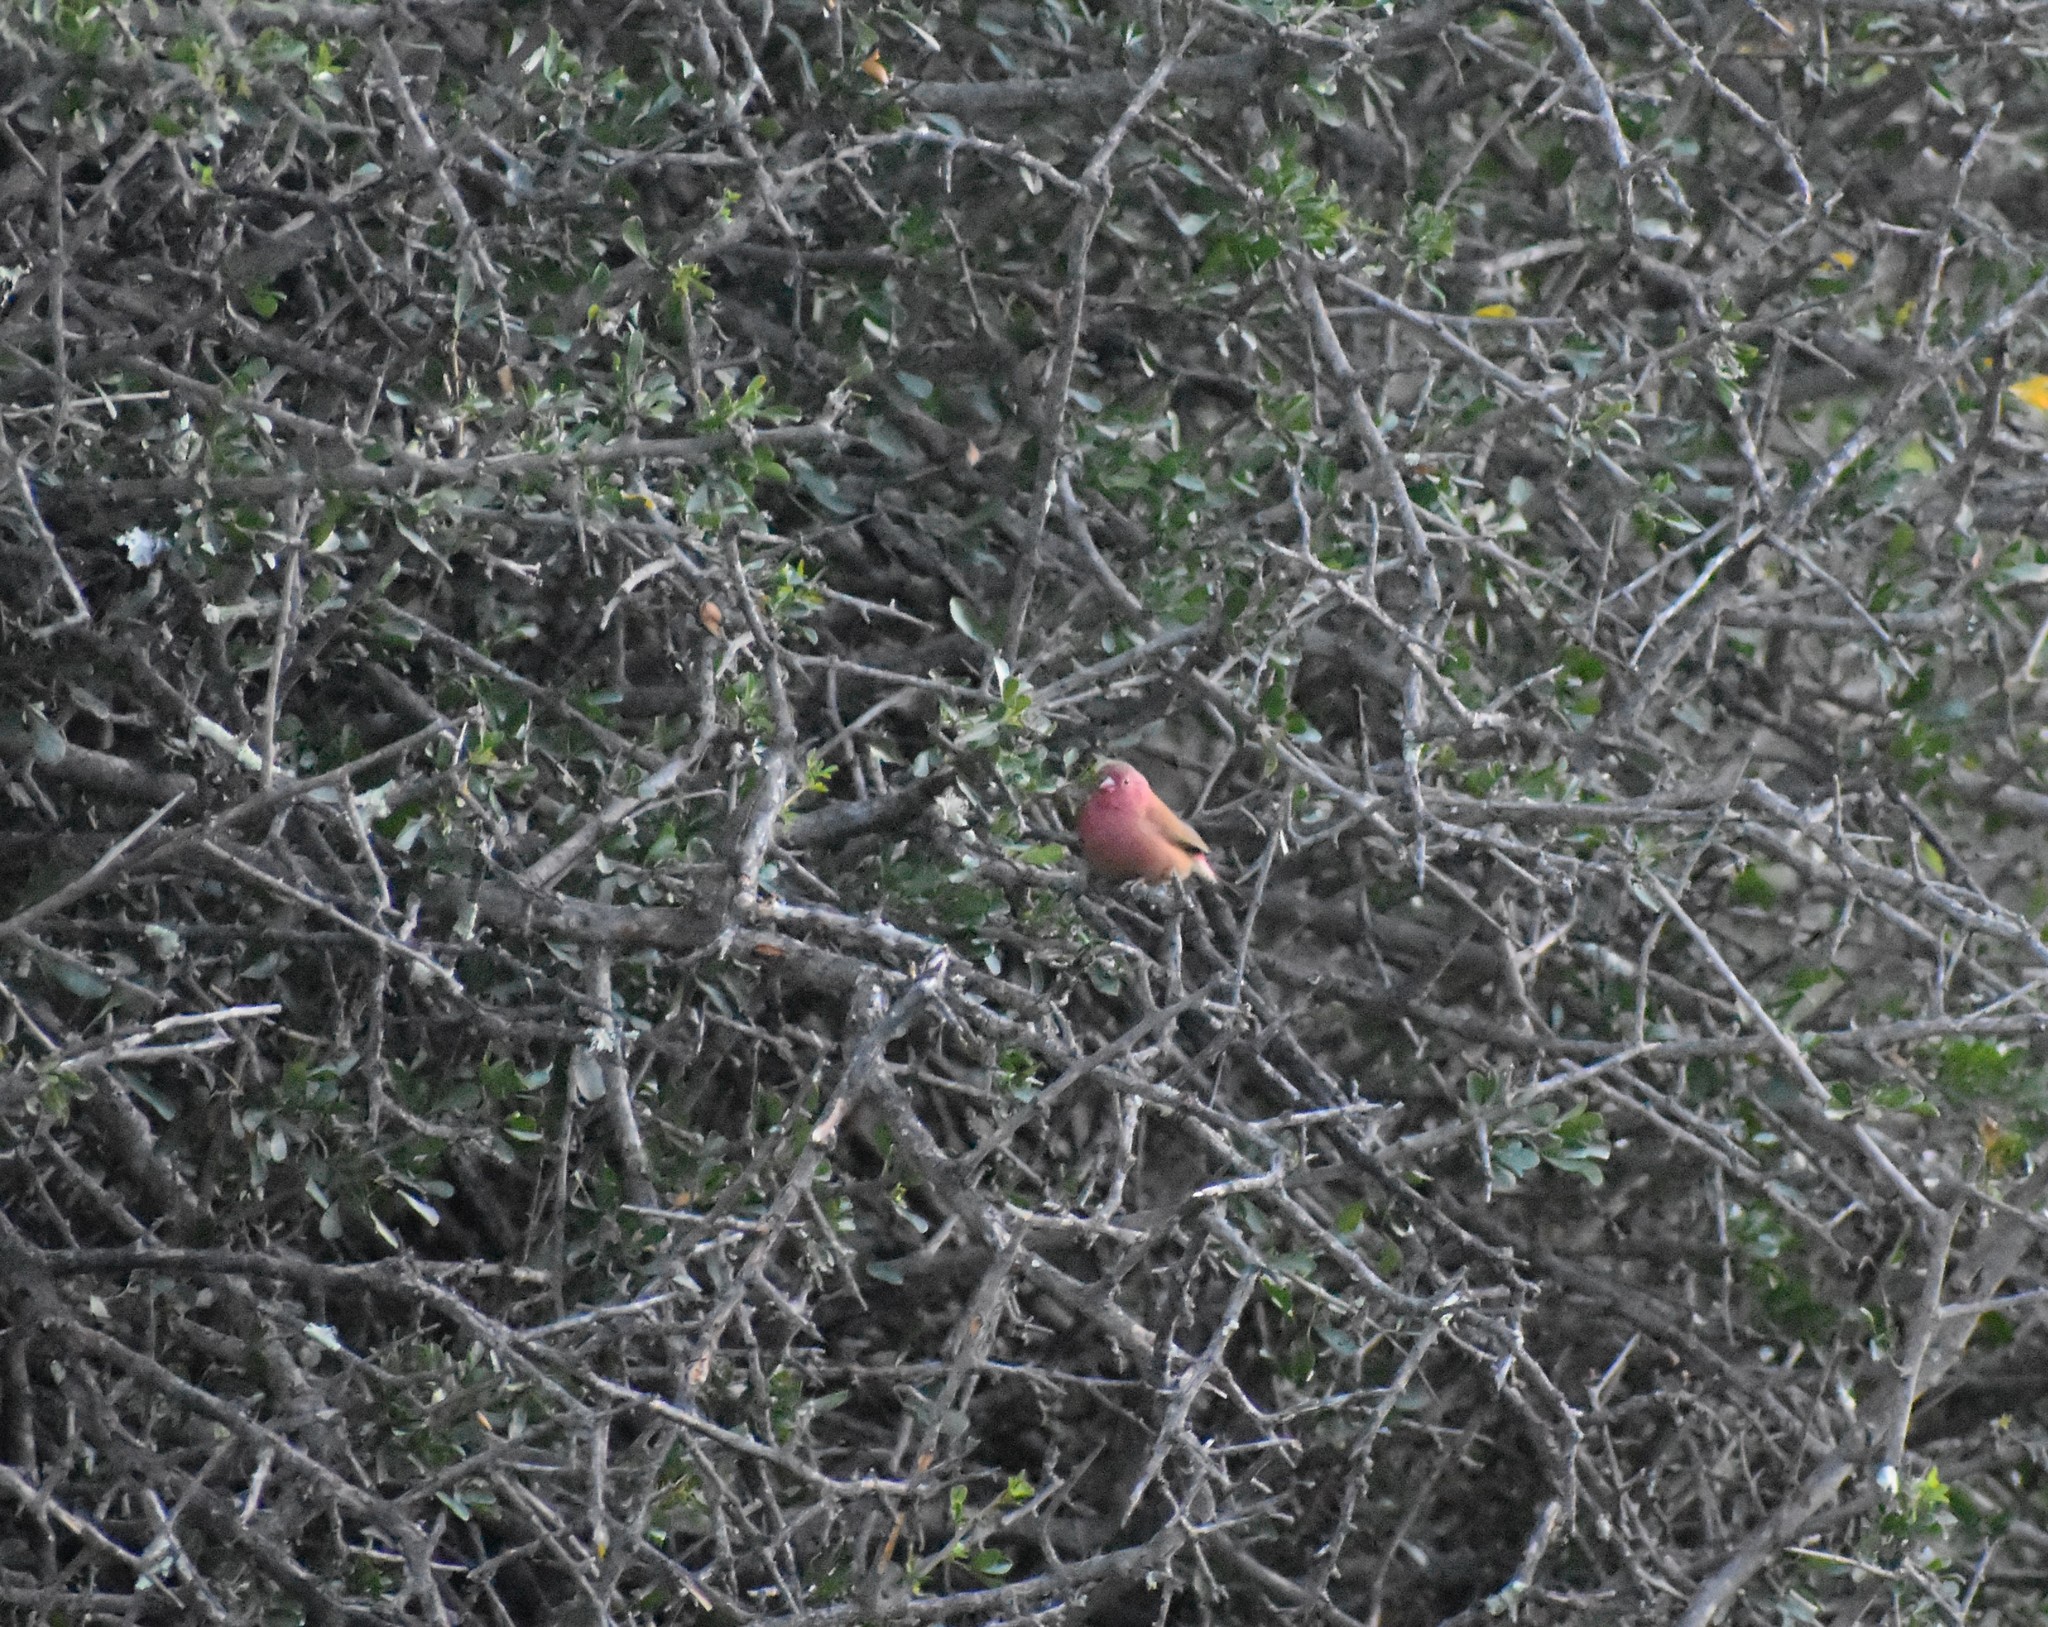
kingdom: Animalia
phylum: Chordata
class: Aves
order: Passeriformes
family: Estrildidae
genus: Lagonosticta
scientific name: Lagonosticta senegala
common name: Red-billed firefinch
